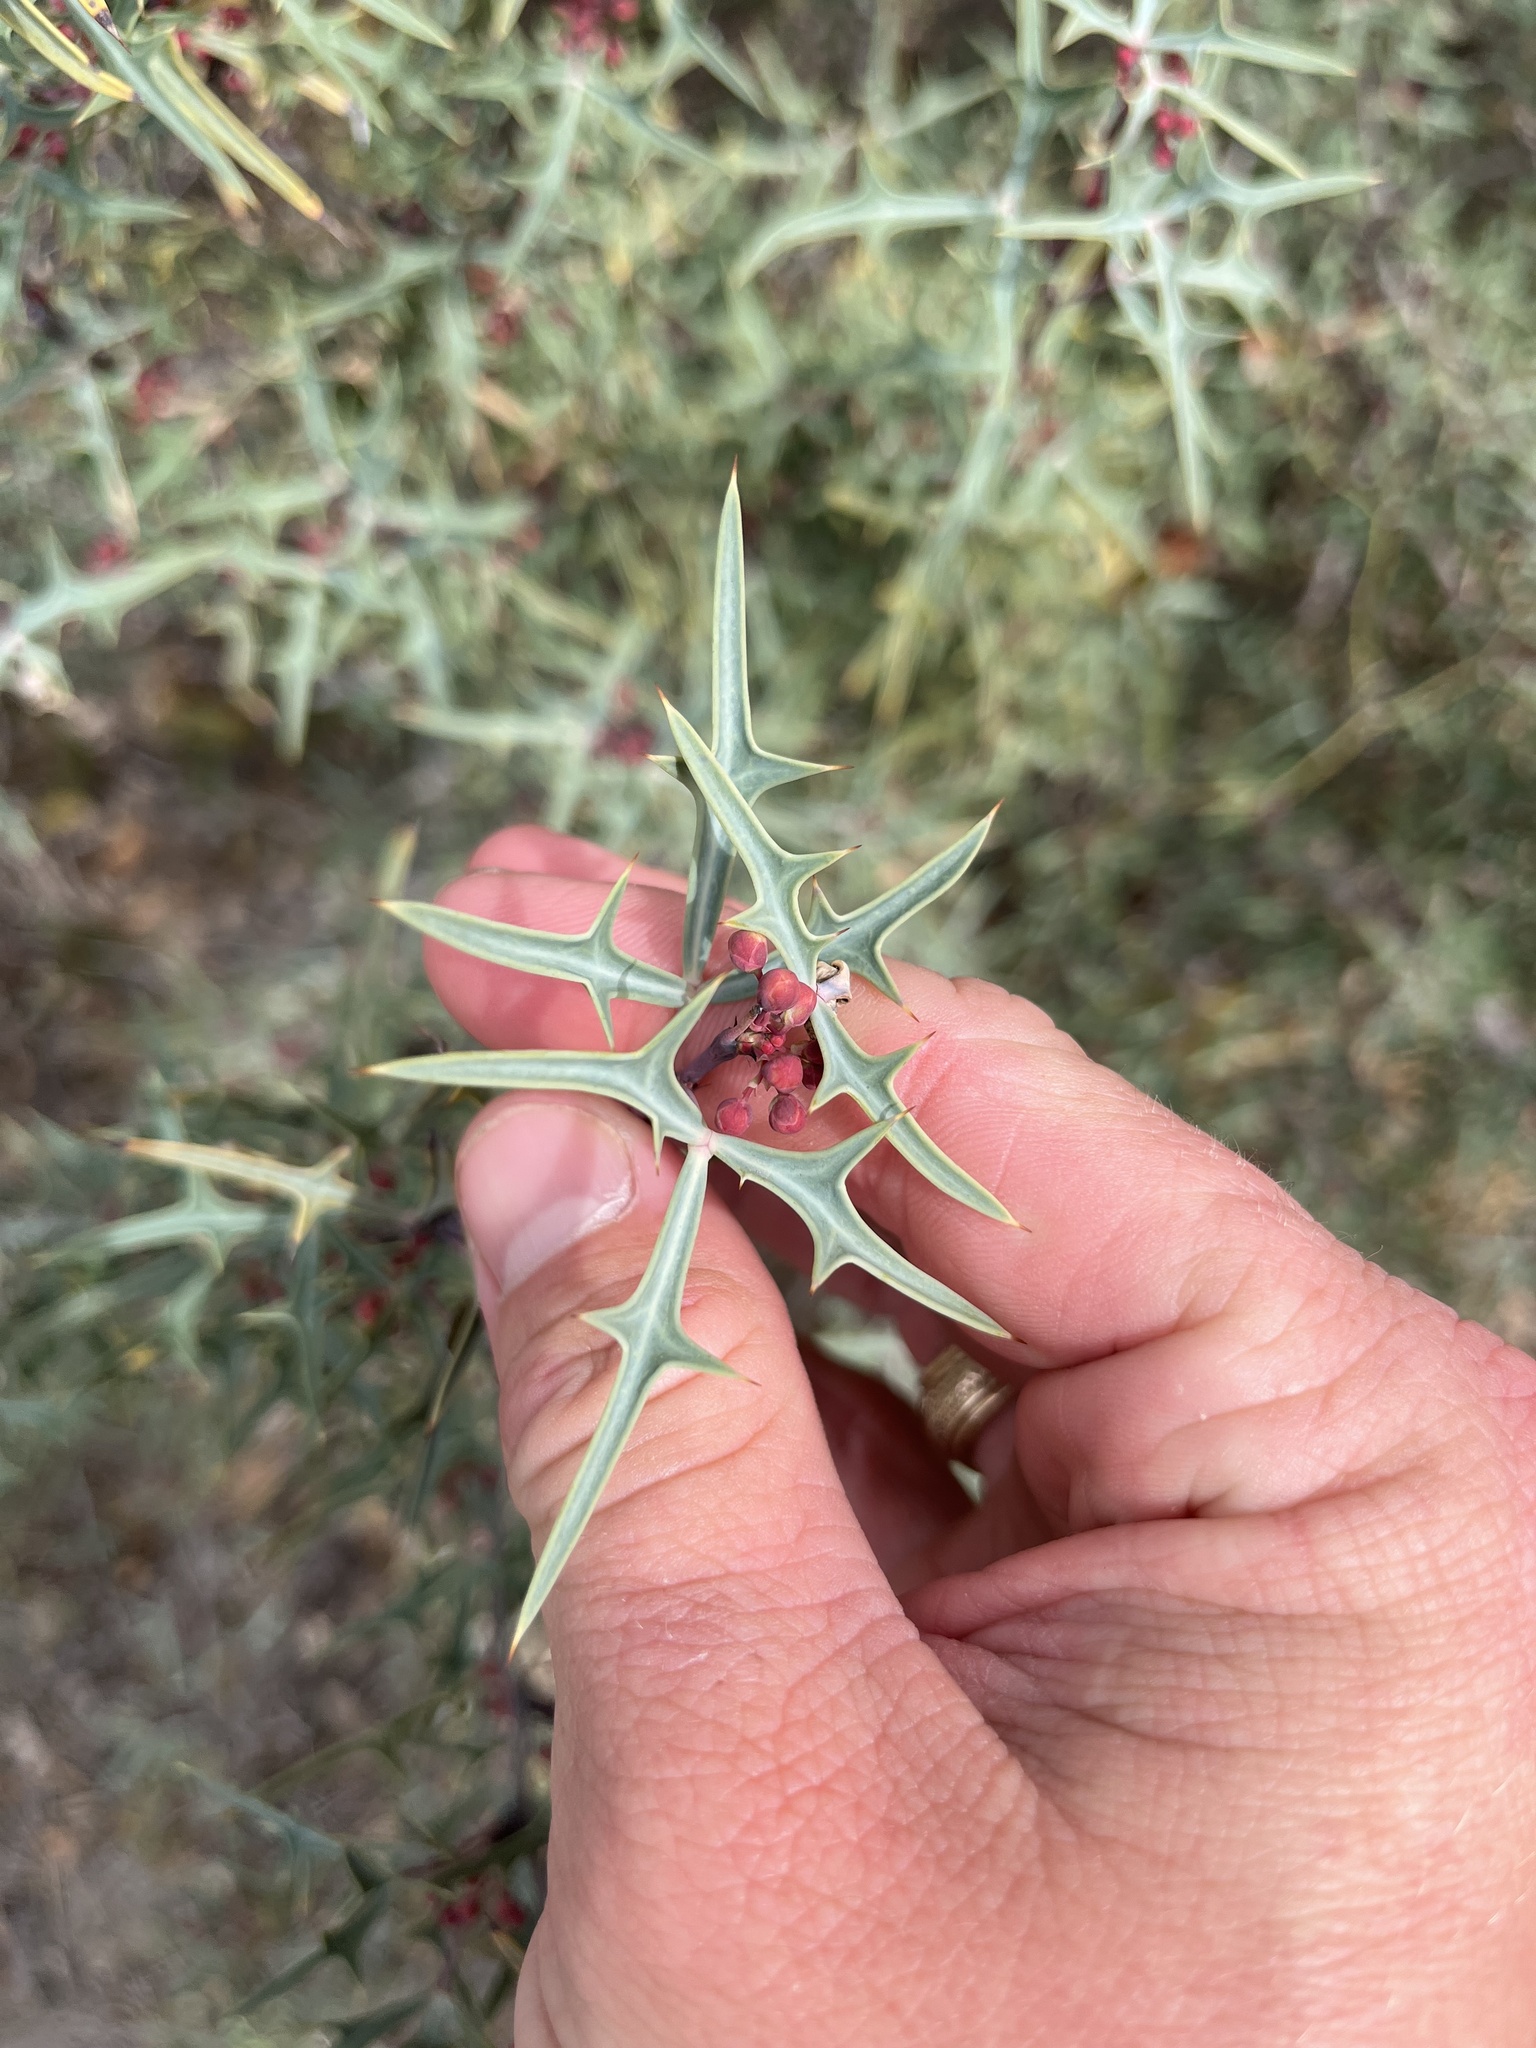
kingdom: Plantae
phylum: Tracheophyta
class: Magnoliopsida
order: Ranunculales
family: Berberidaceae
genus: Alloberberis
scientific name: Alloberberis trifoliolata
